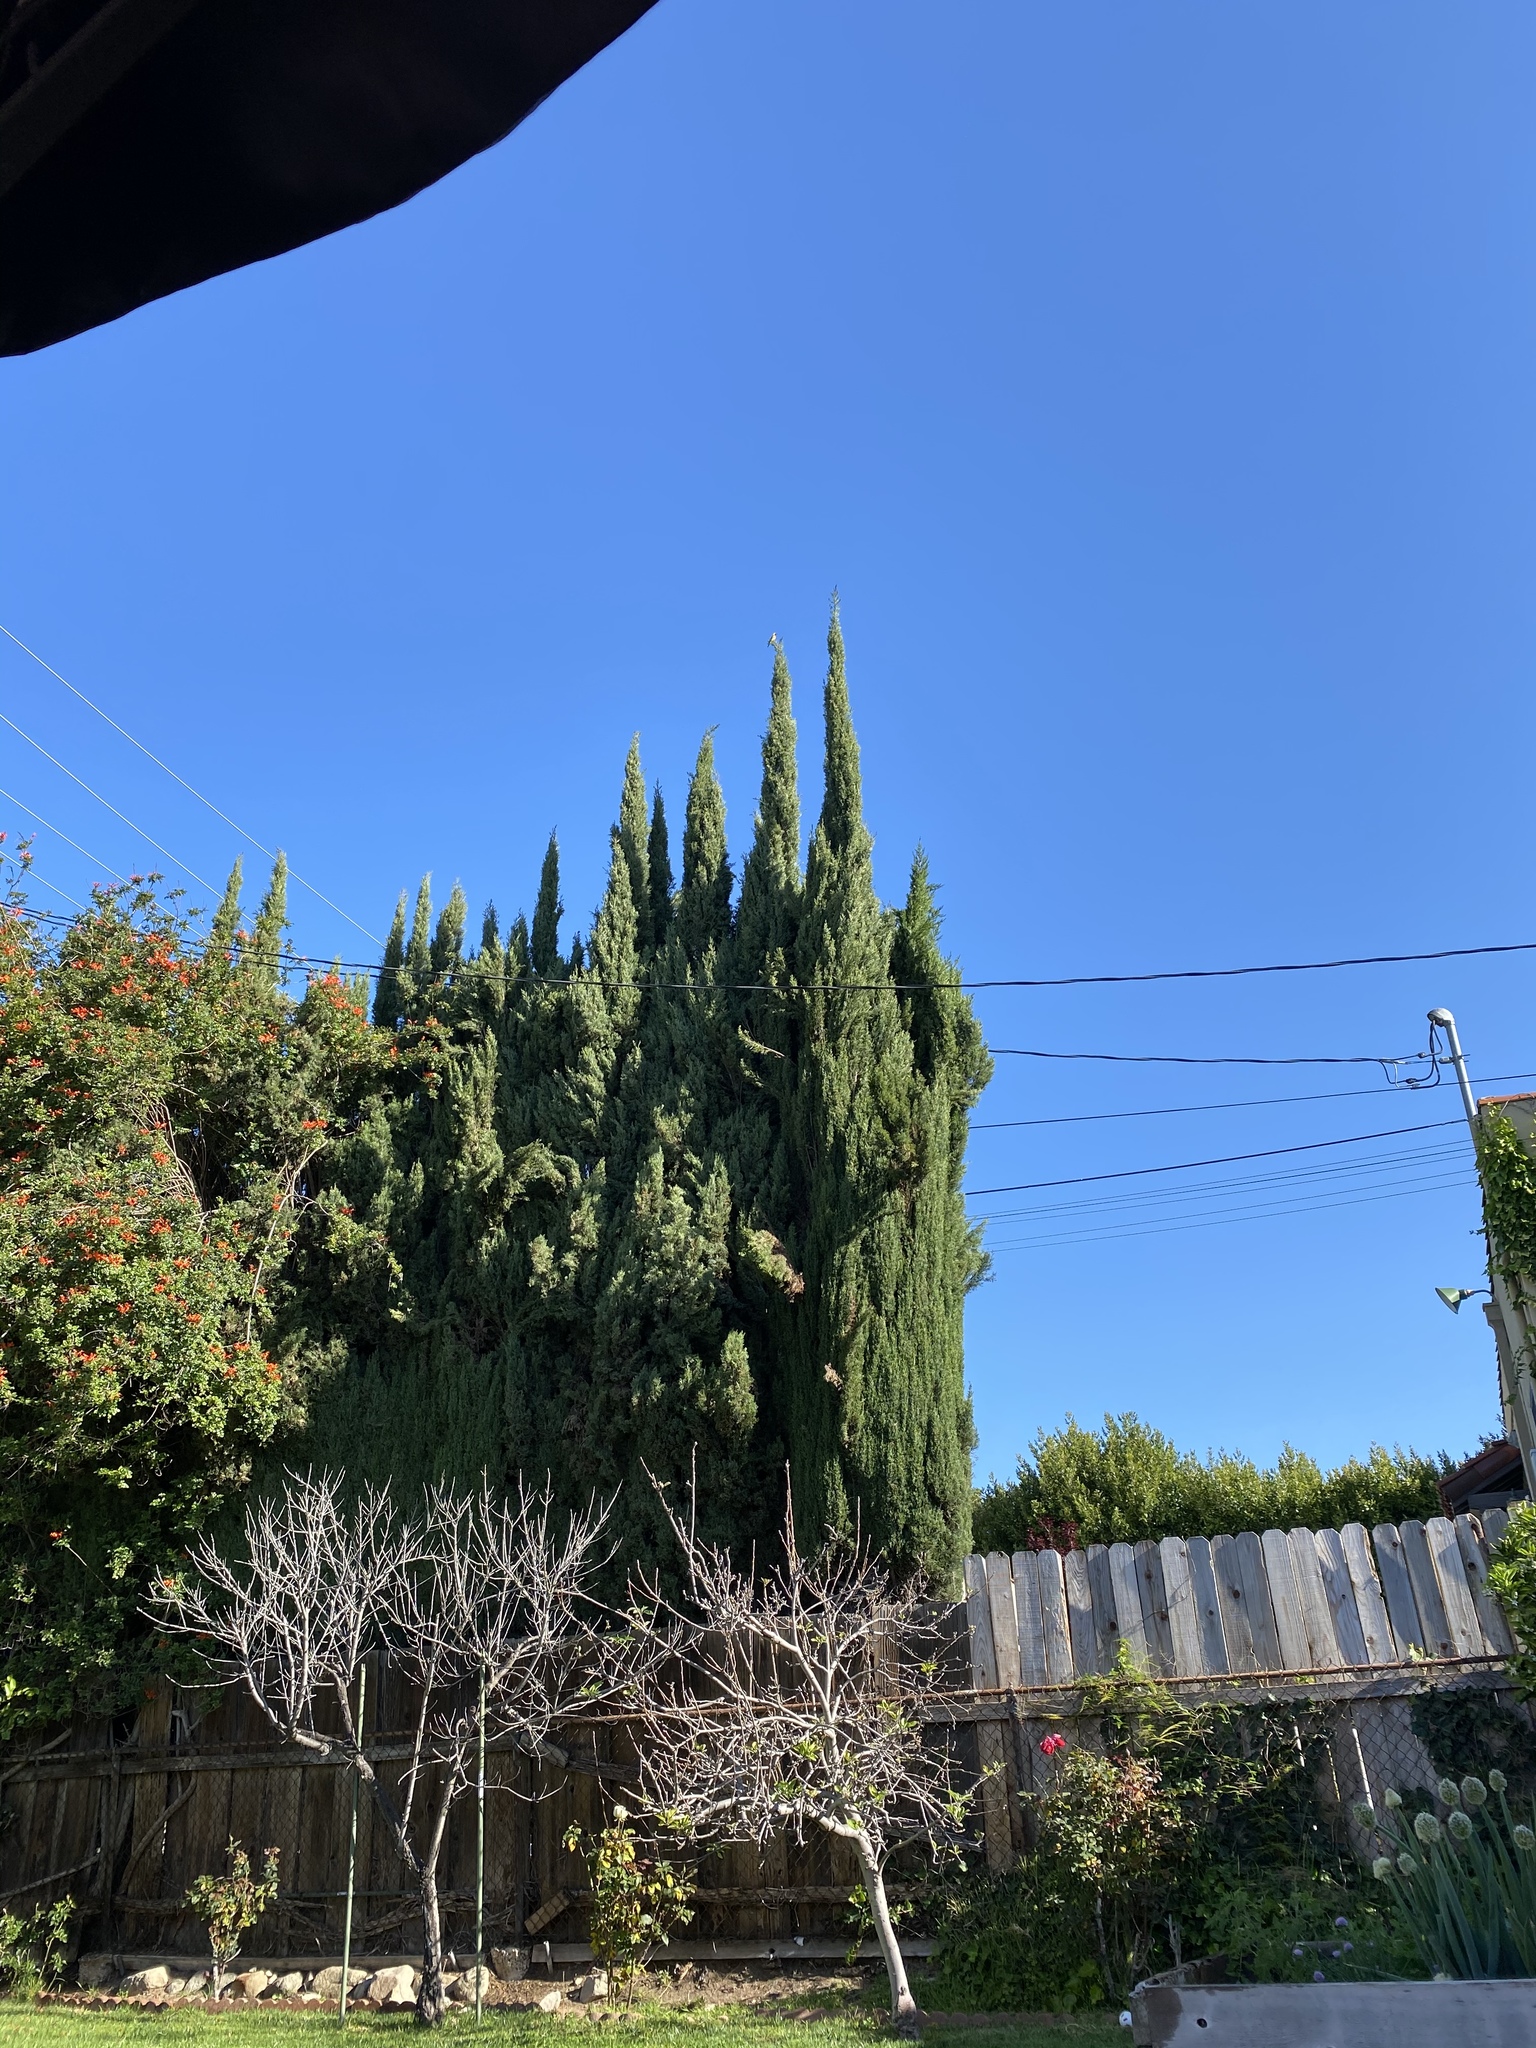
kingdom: Animalia
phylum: Chordata
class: Aves
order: Passeriformes
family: Icteridae
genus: Icterus
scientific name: Icterus cucullatus
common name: Hooded oriole
